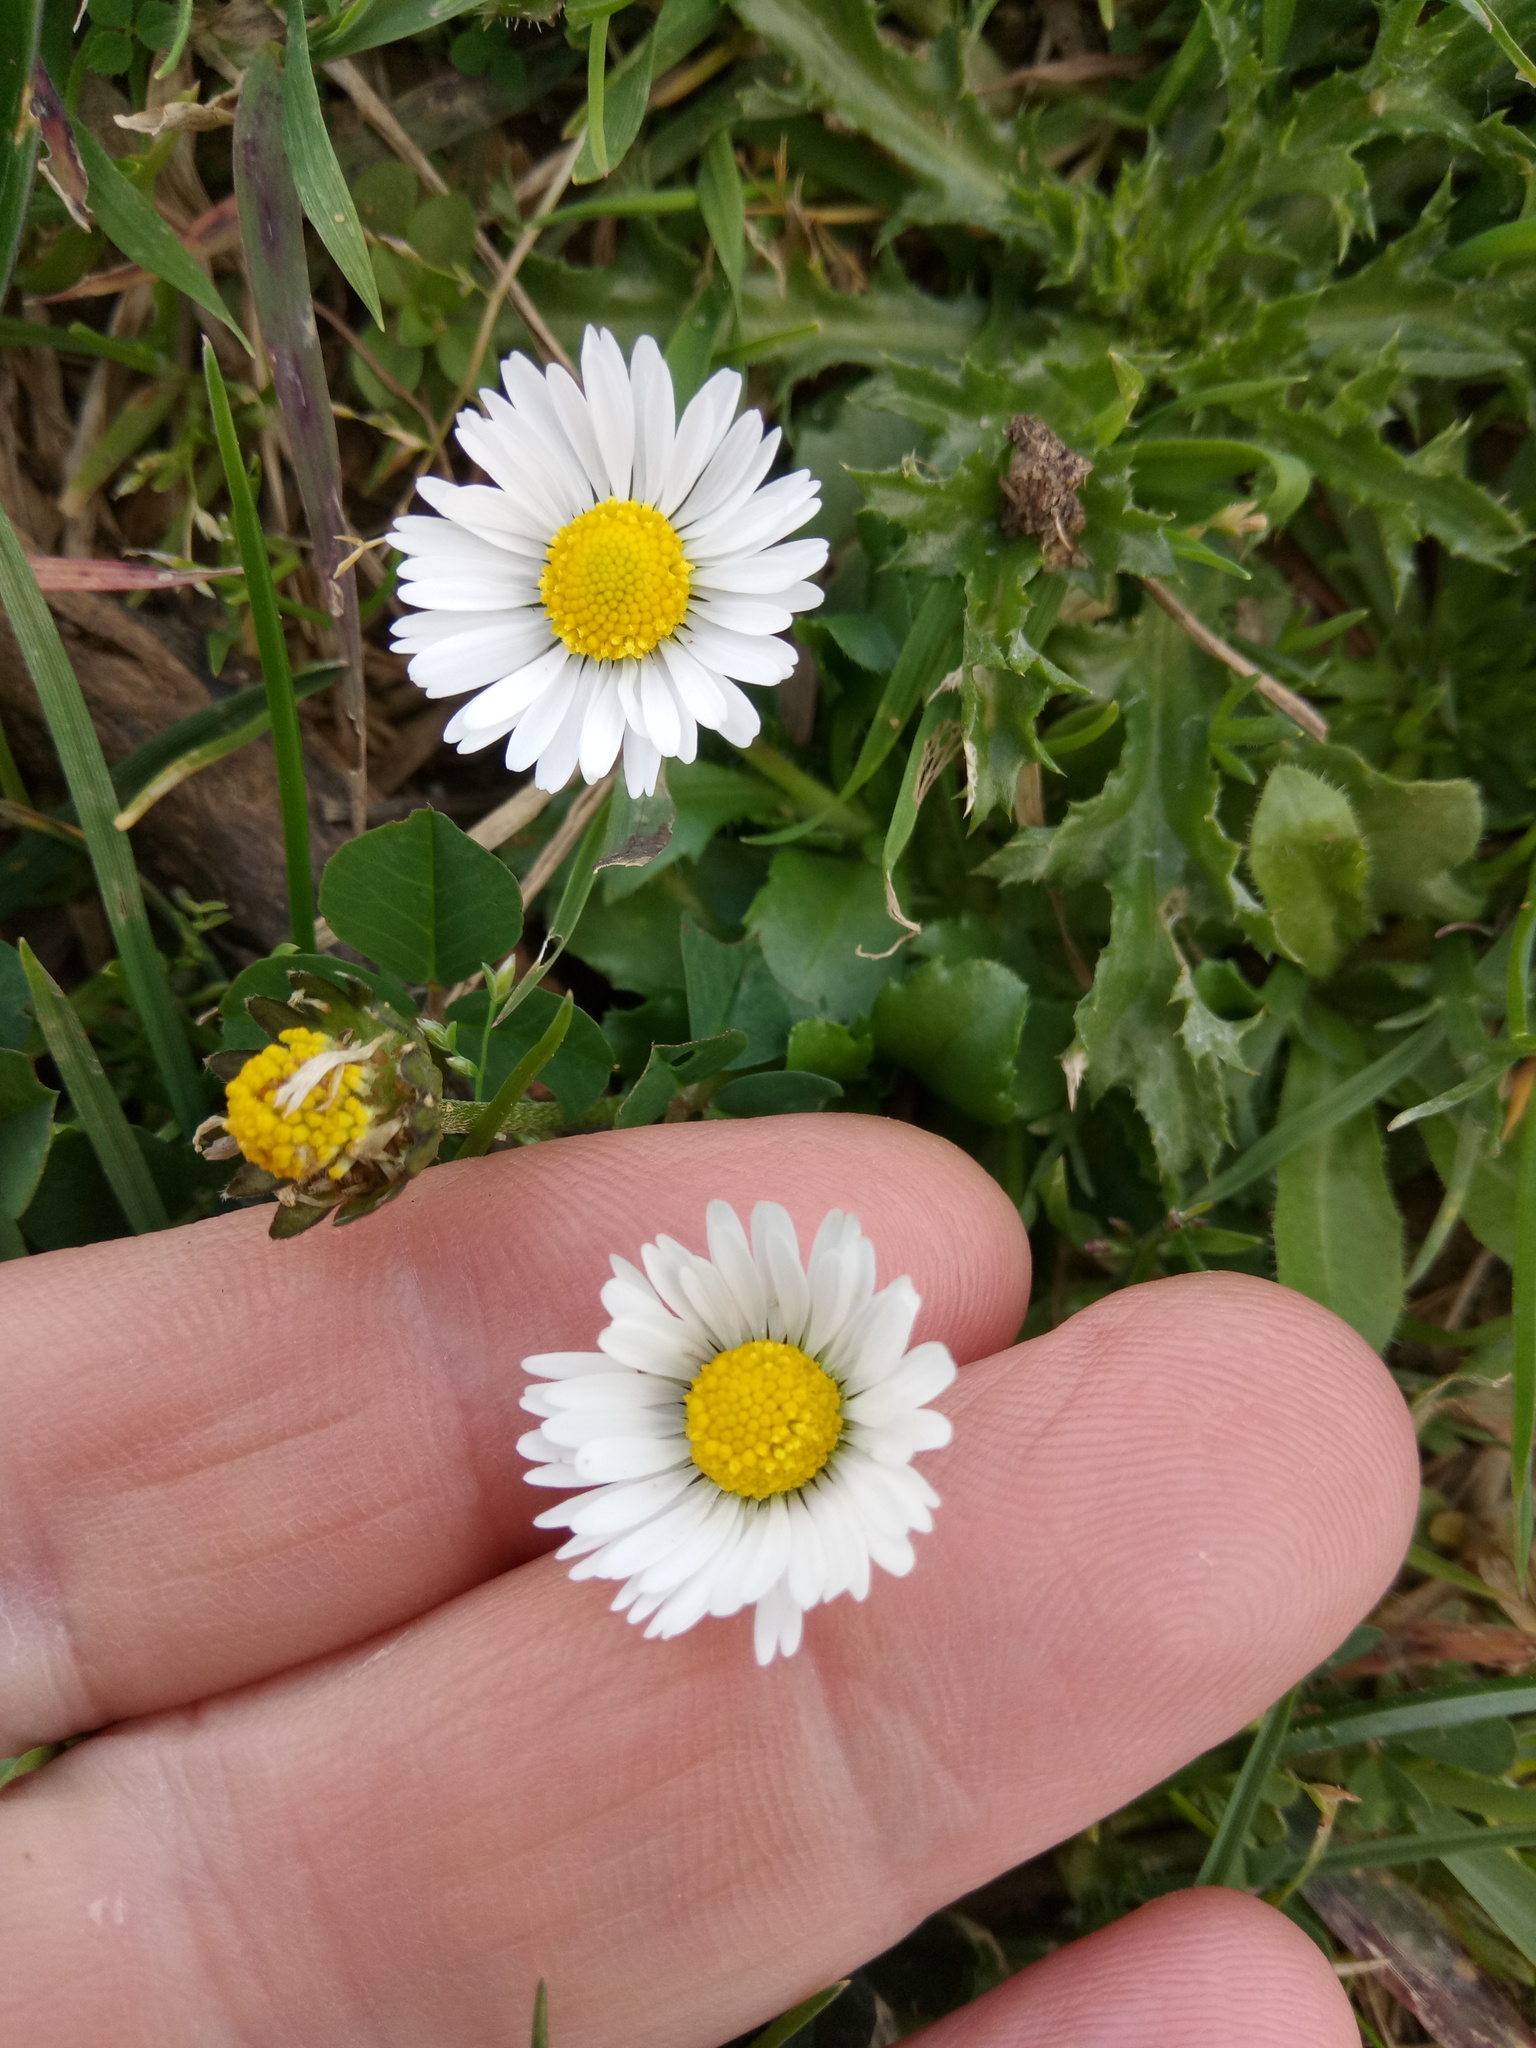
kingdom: Plantae
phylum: Tracheophyta
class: Magnoliopsida
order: Asterales
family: Asteraceae
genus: Bellis
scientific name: Bellis perennis
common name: Lawndaisy
